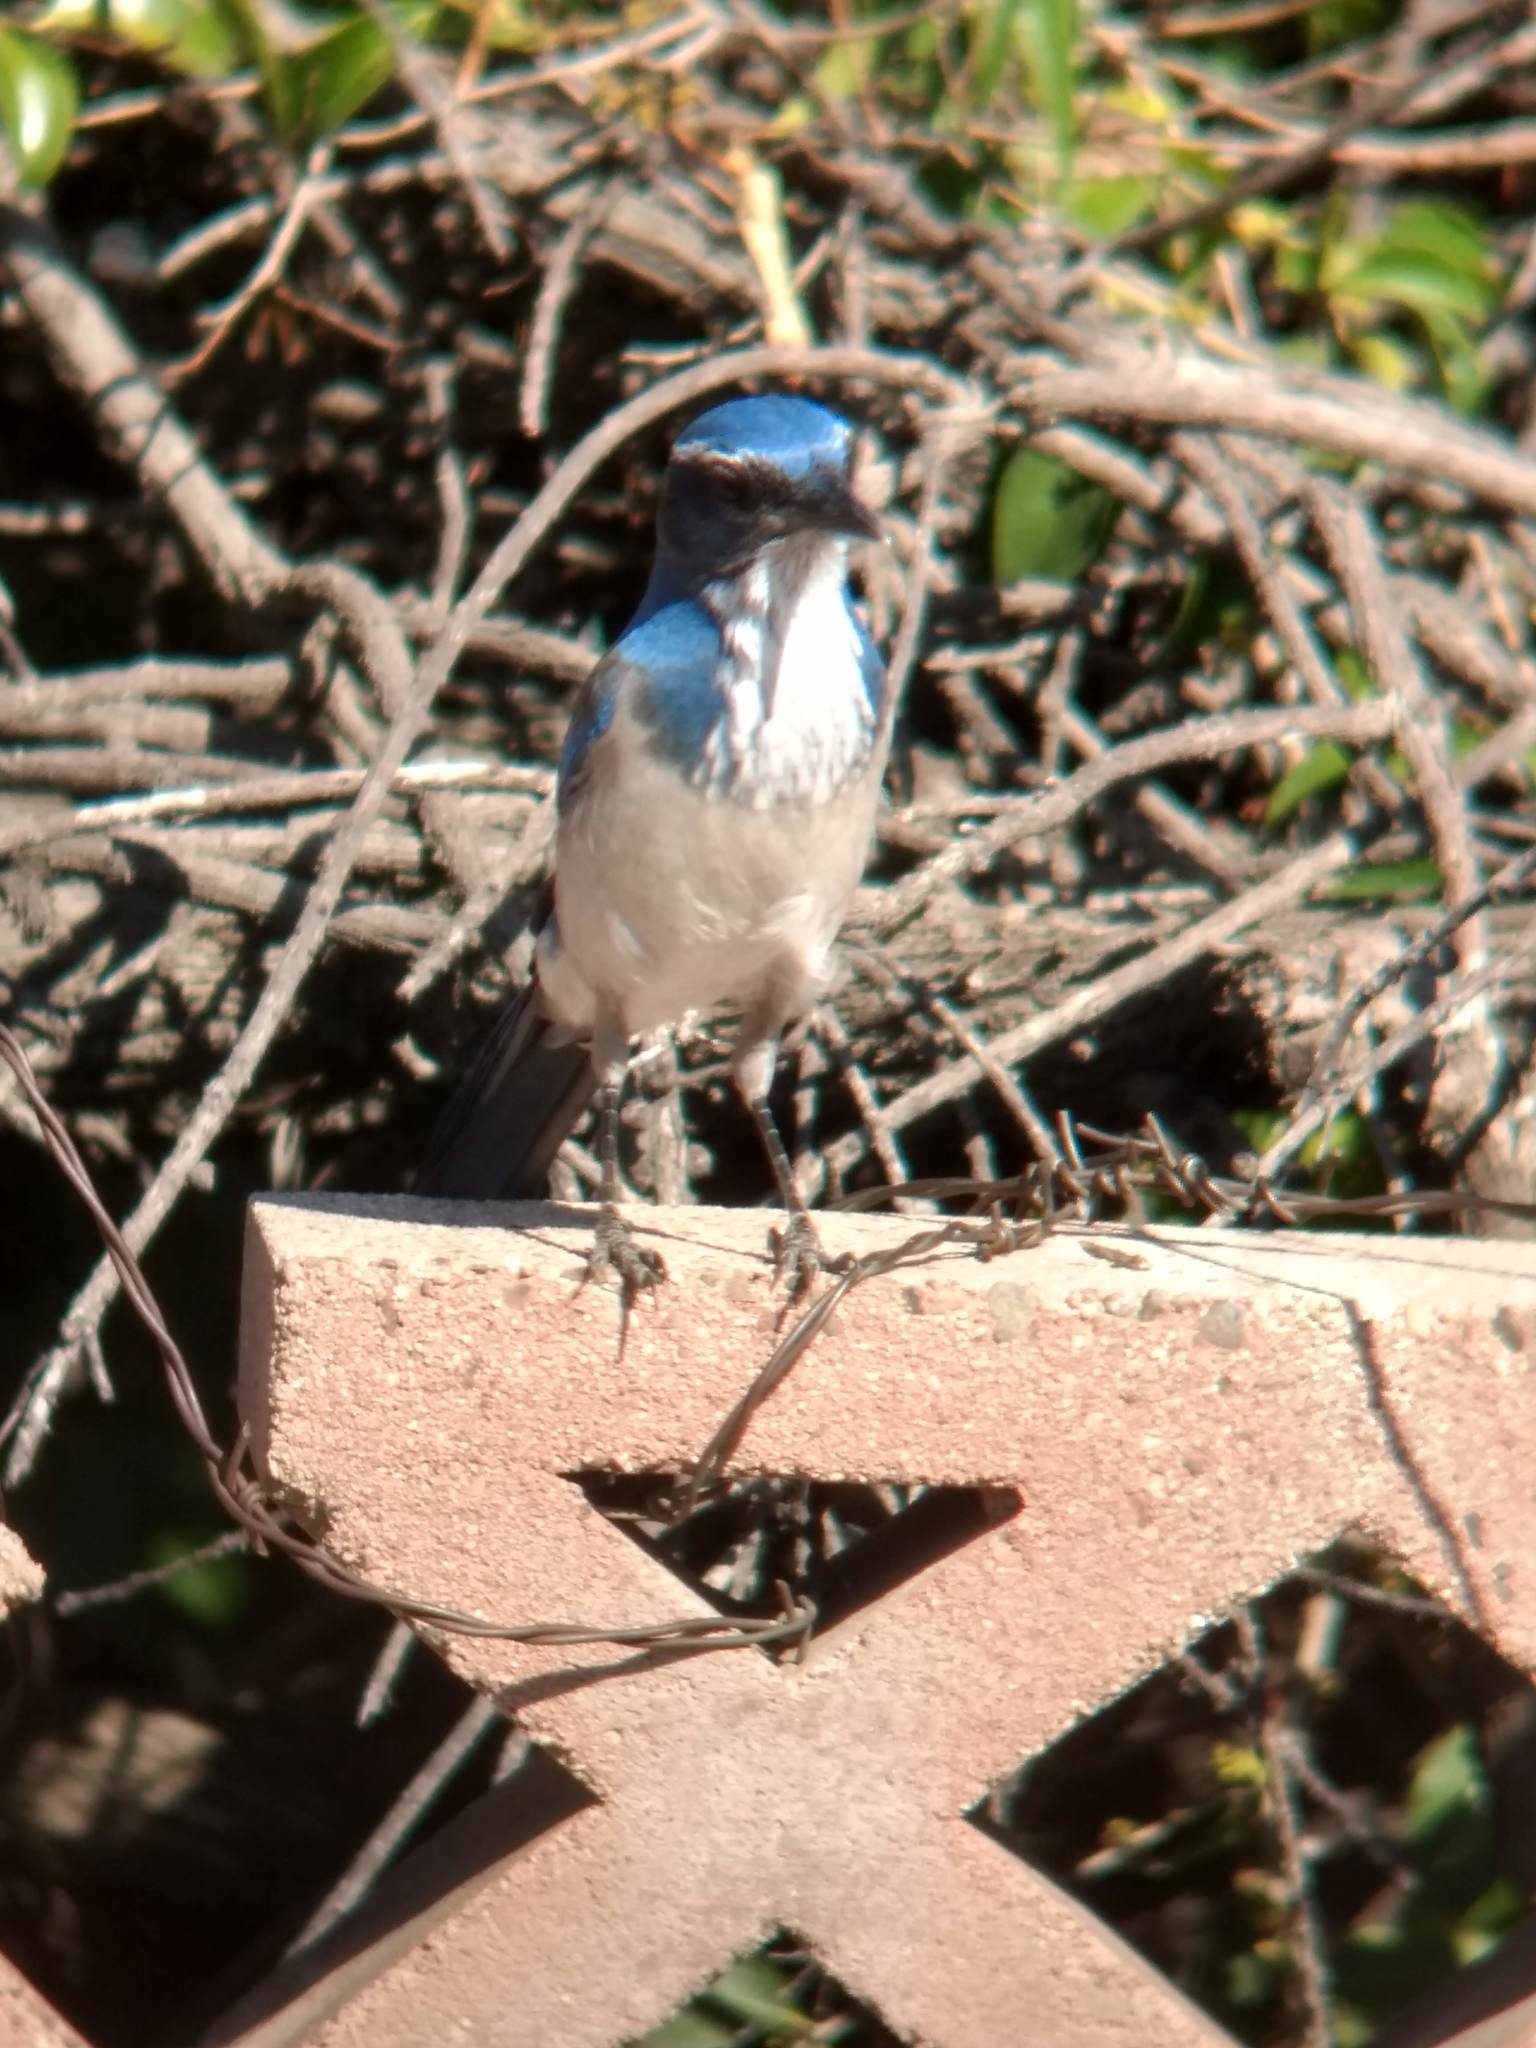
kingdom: Animalia
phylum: Chordata
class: Aves
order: Passeriformes
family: Corvidae
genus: Aphelocoma
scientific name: Aphelocoma californica
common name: California scrub-jay
